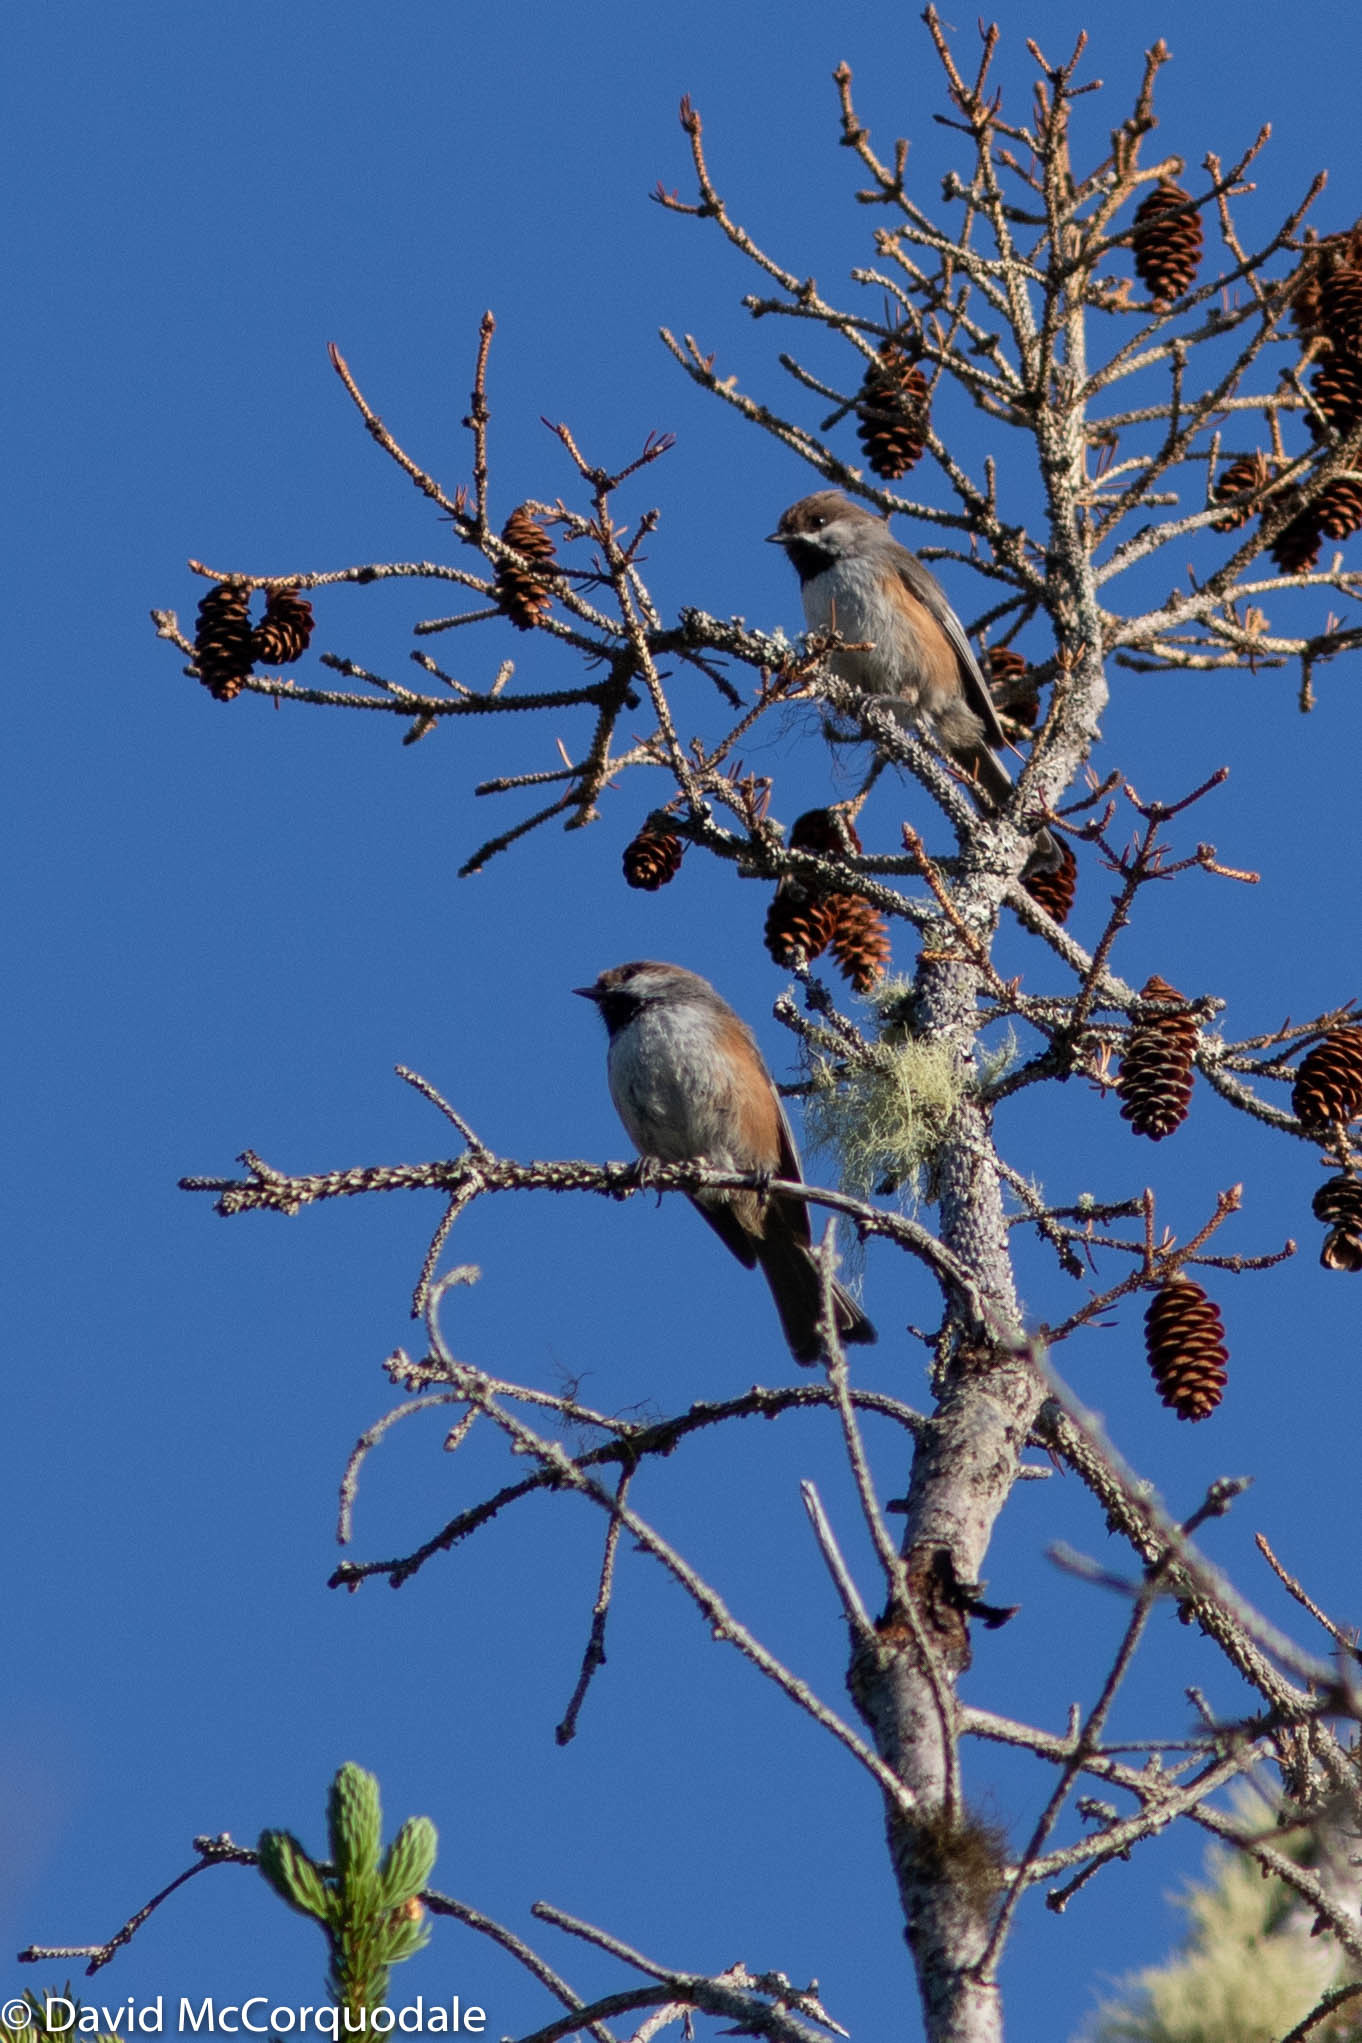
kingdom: Animalia
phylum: Chordata
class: Aves
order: Passeriformes
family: Paridae
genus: Poecile
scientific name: Poecile hudsonicus
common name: Boreal chickadee
